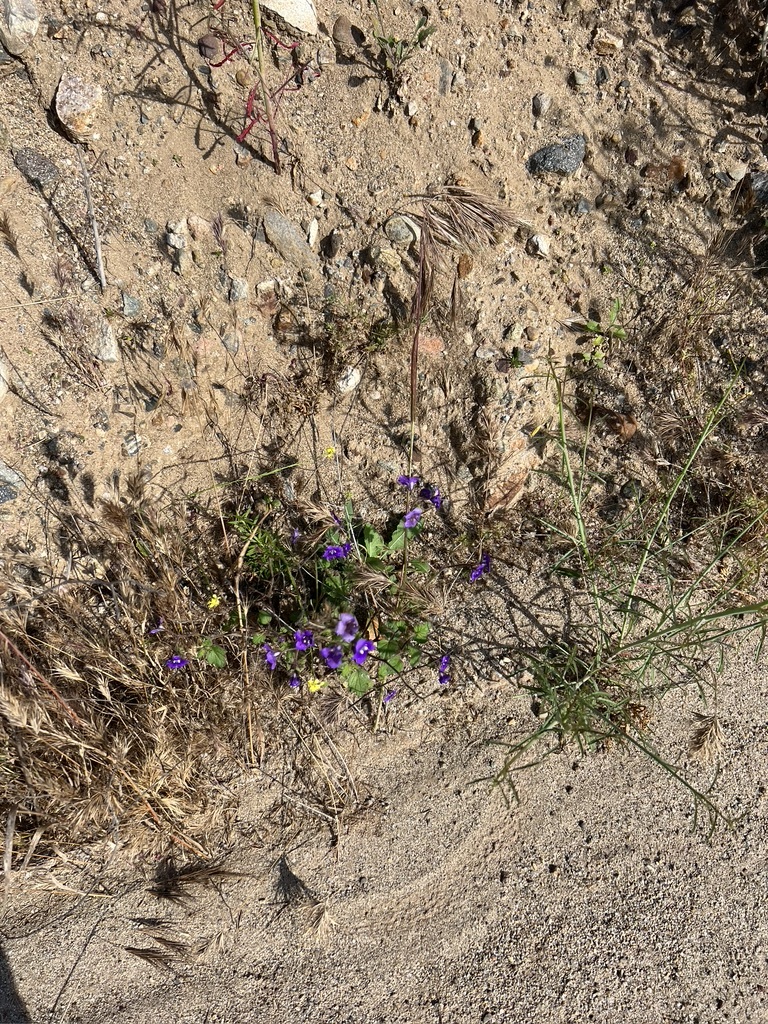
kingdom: Plantae
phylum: Tracheophyta
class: Magnoliopsida
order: Boraginales
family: Hydrophyllaceae
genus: Phacelia
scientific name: Phacelia parryi
